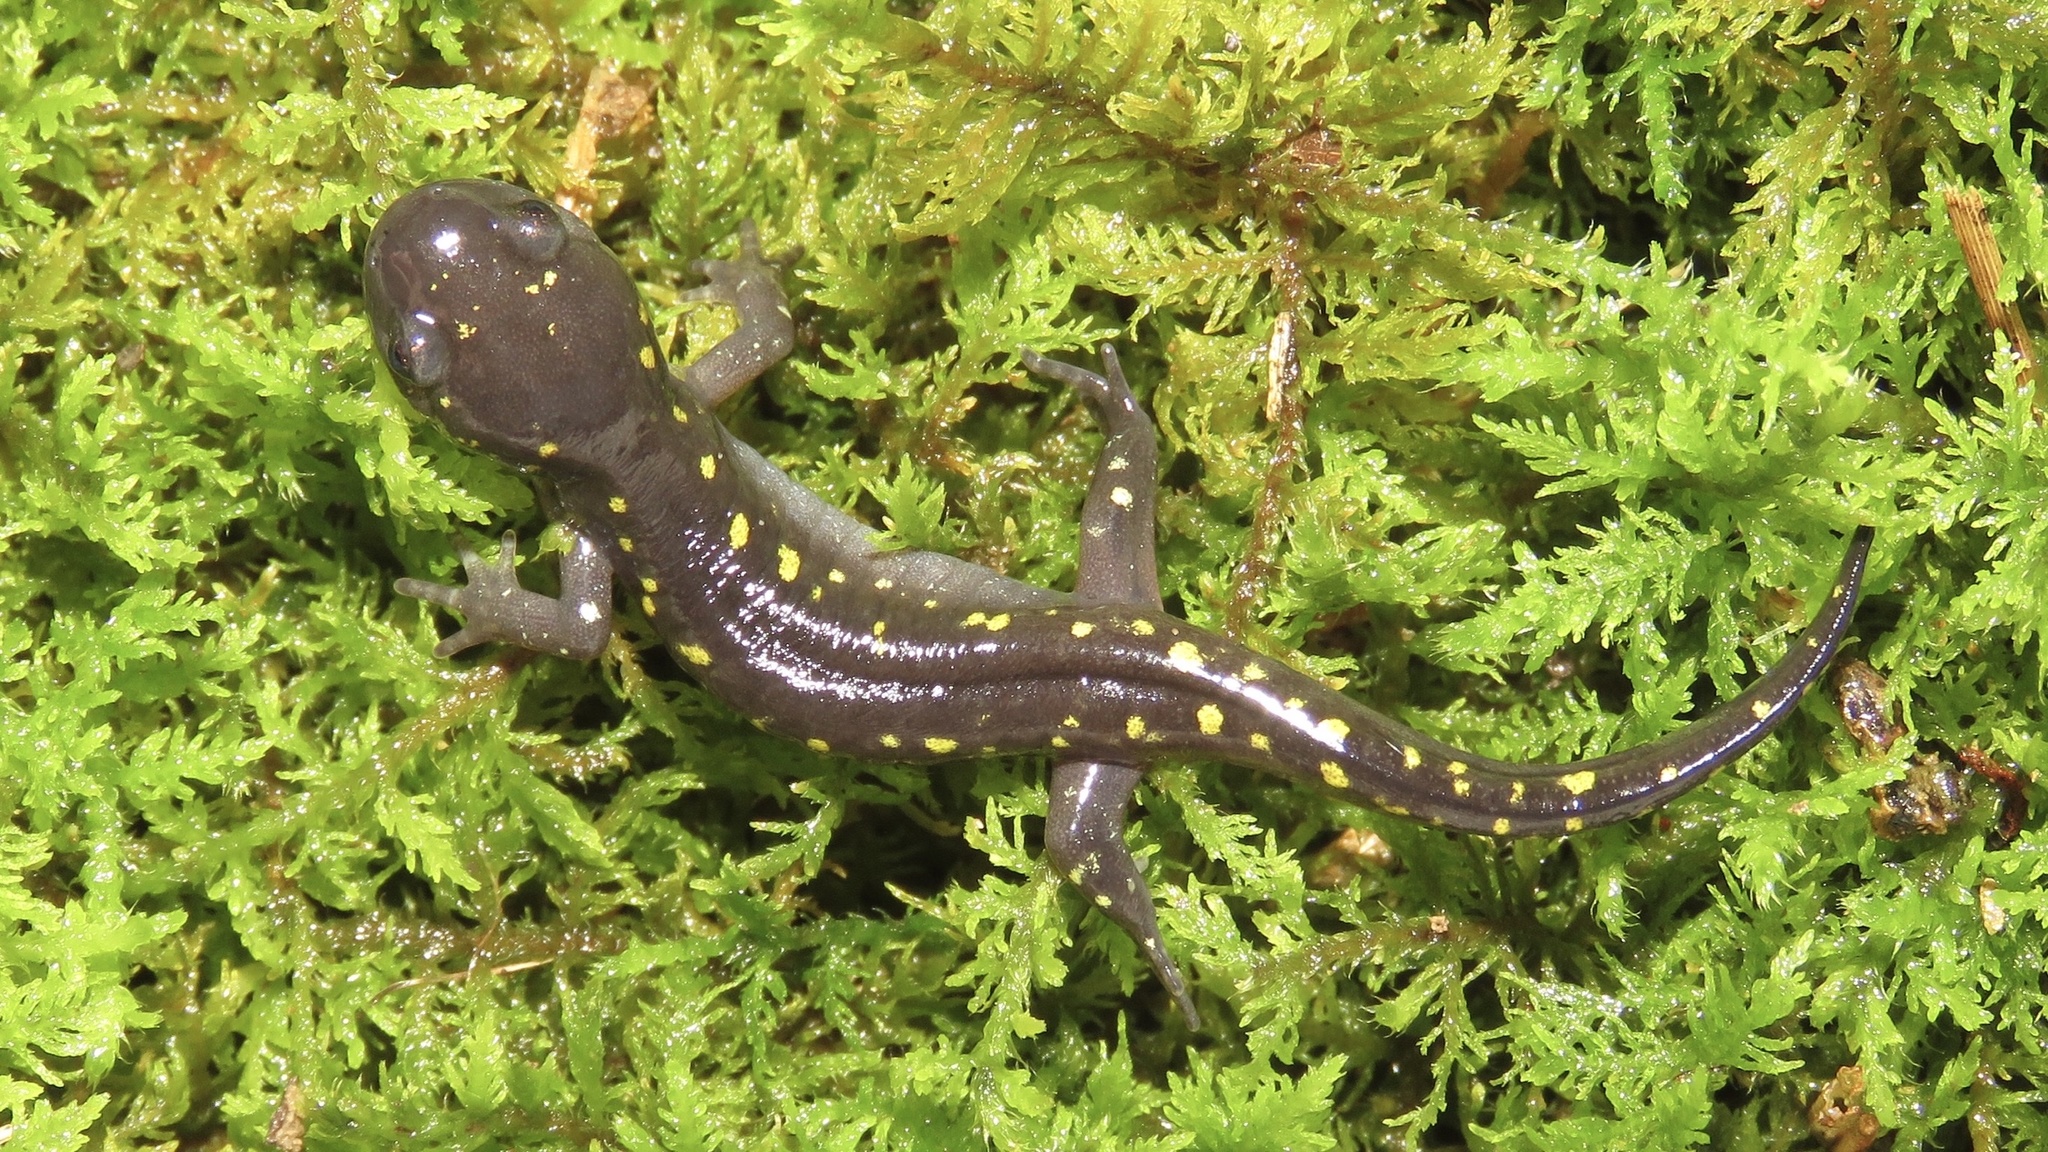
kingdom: Animalia
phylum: Chordata
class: Amphibia
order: Caudata
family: Ambystomatidae
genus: Ambystoma
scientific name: Ambystoma maculatum
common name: Spotted salamander
